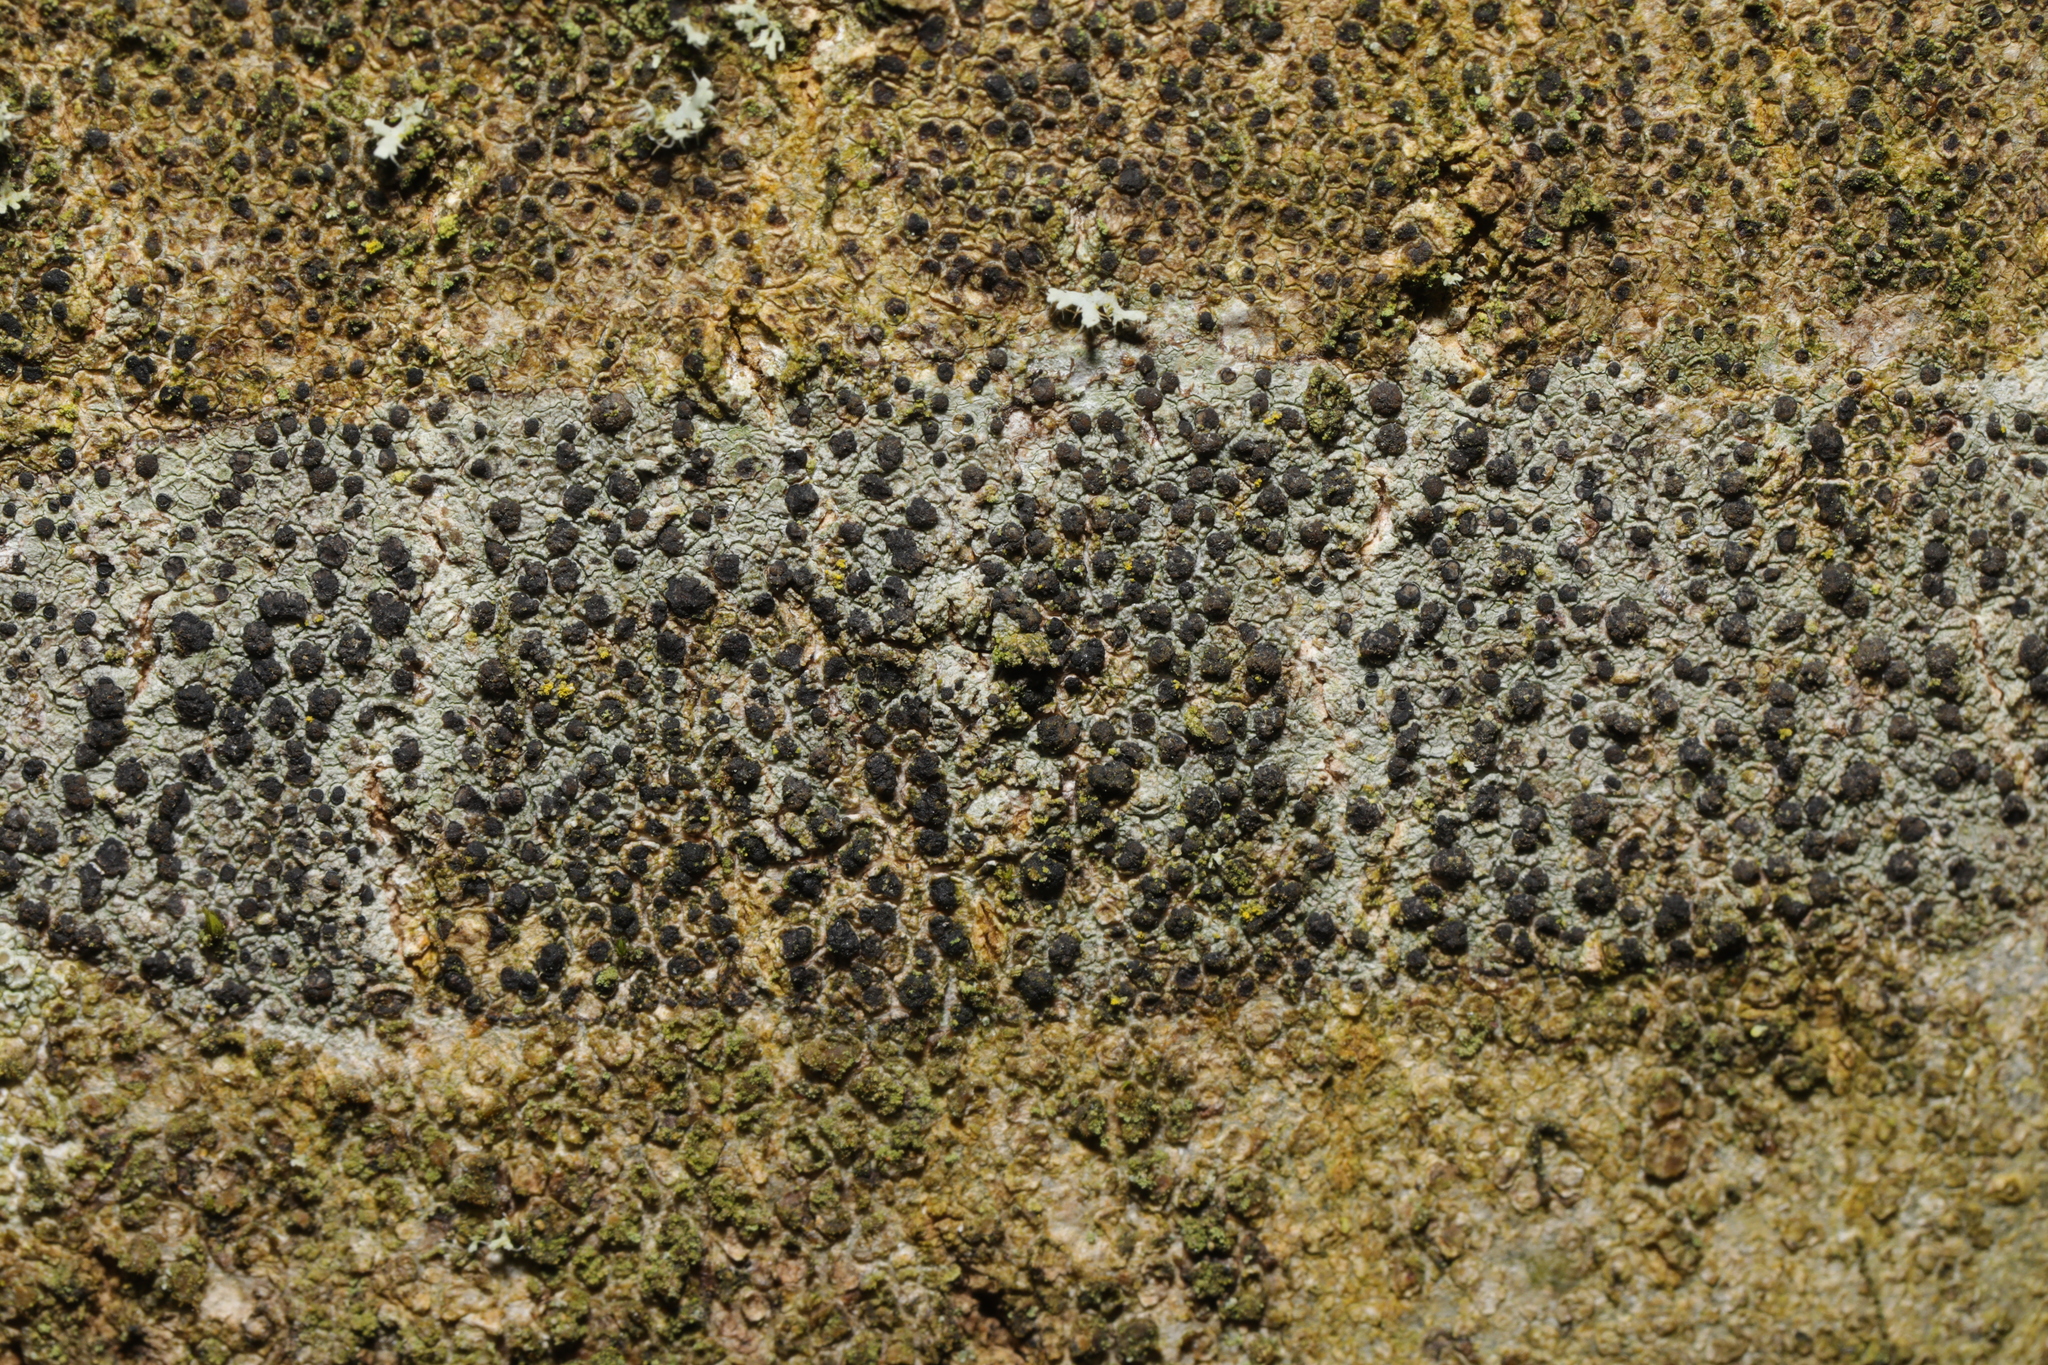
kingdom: Fungi
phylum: Ascomycota
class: Lecanoromycetes
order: Lecanorales
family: Lecanoraceae
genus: Lecidella
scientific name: Lecidella elaeochroma
